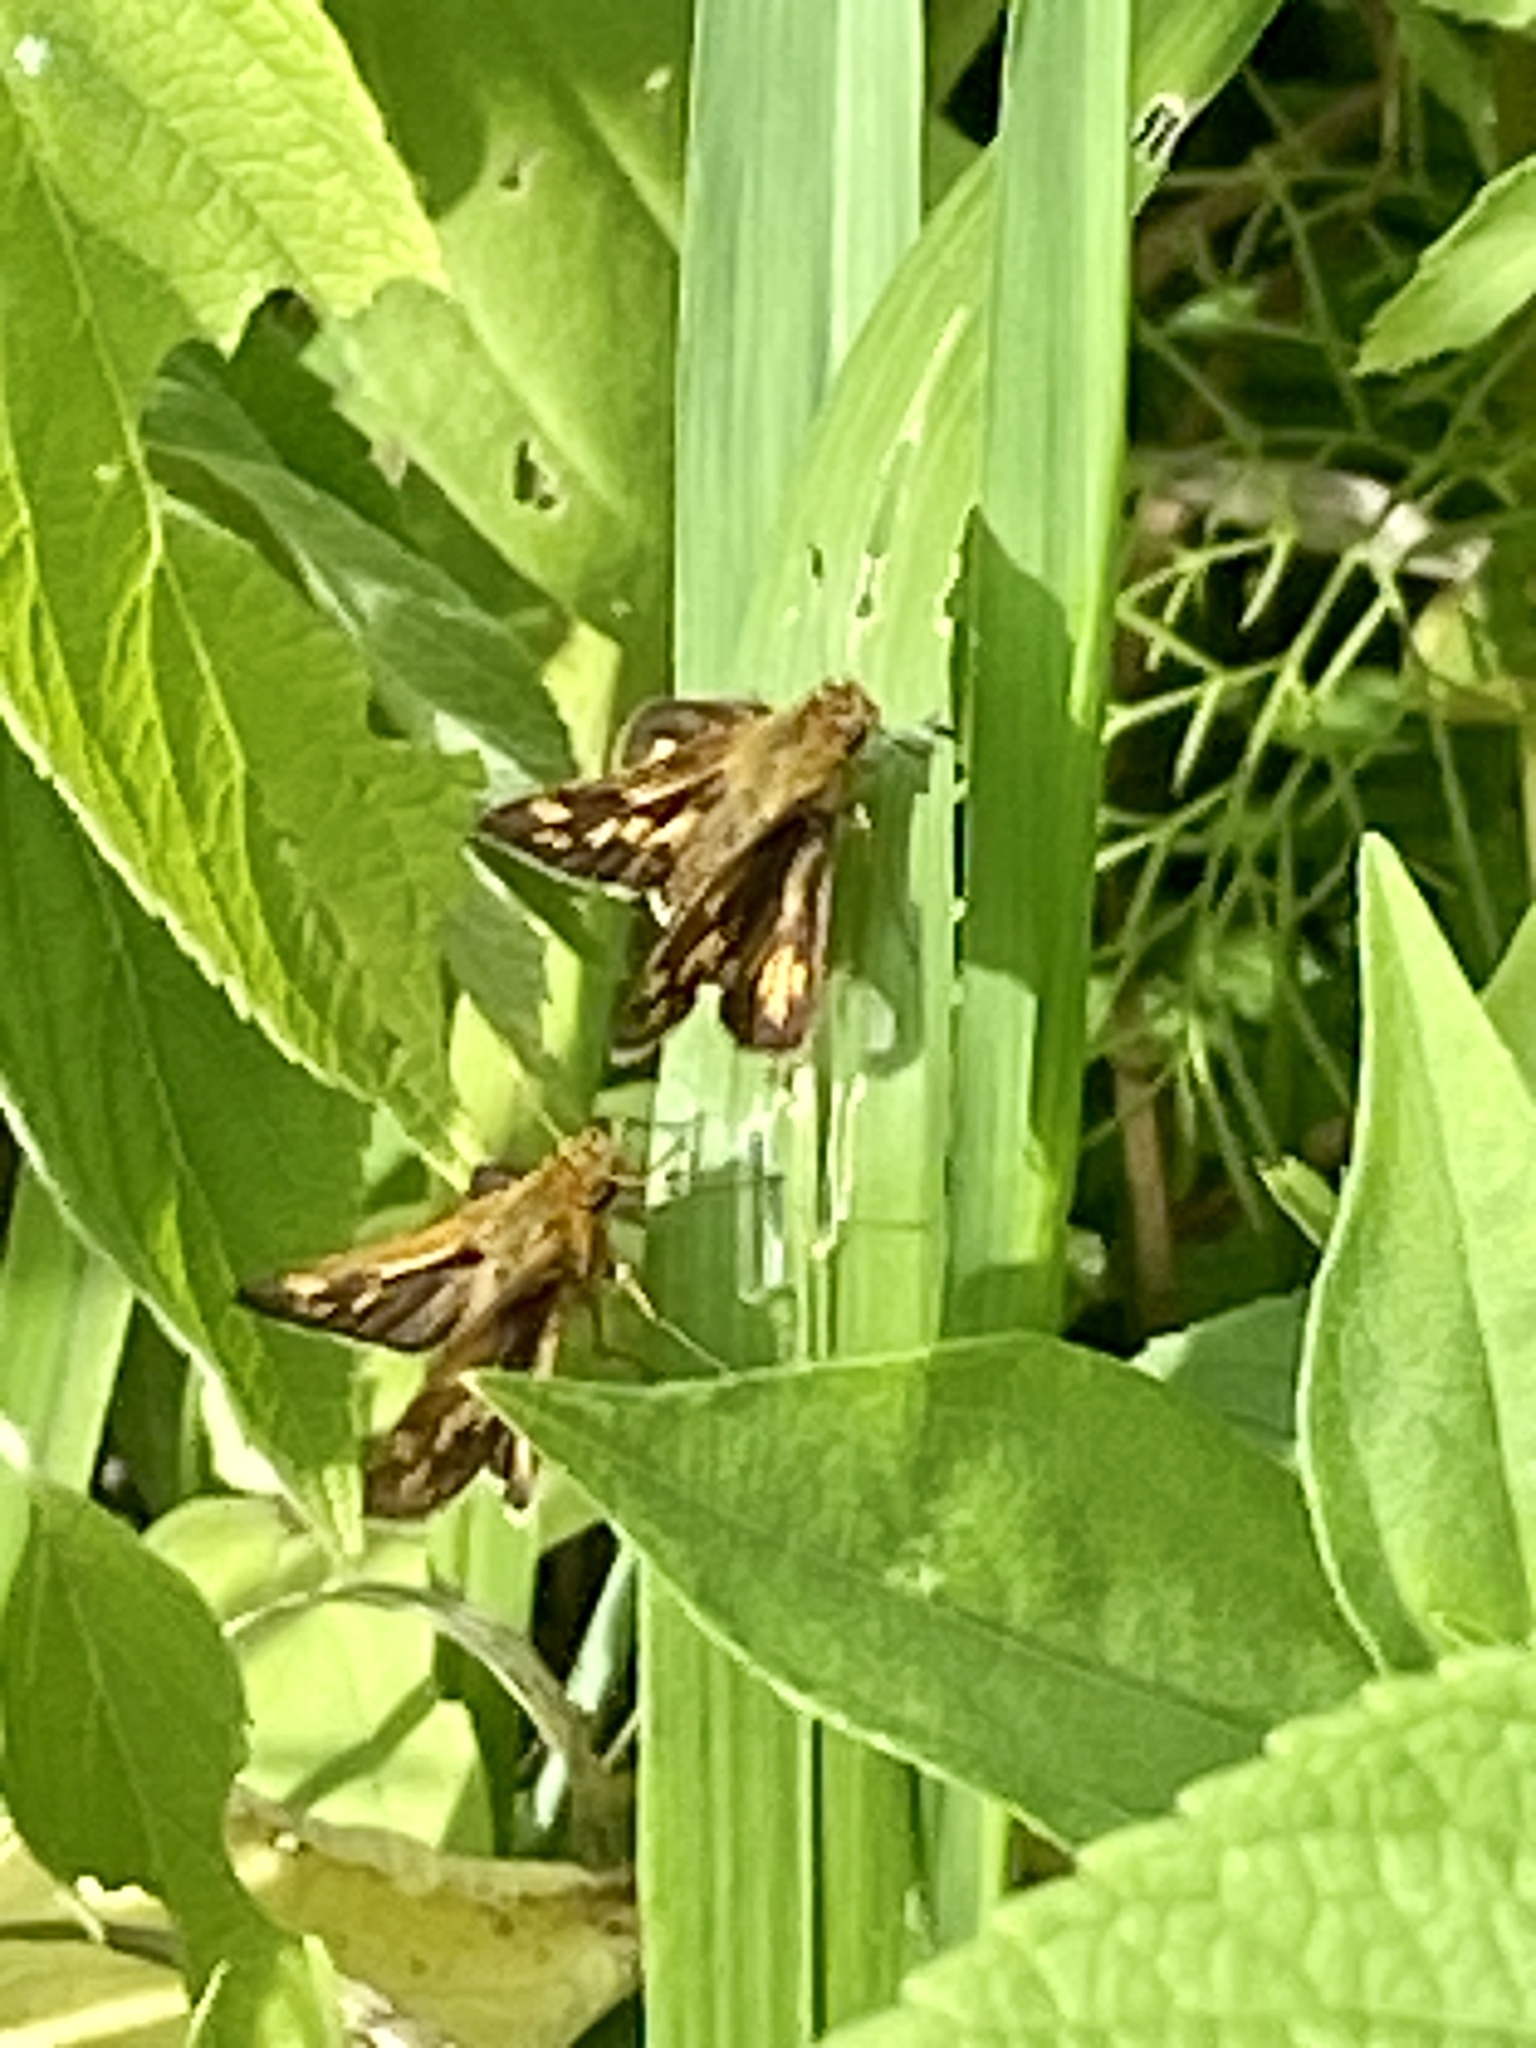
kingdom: Animalia
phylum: Arthropoda
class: Insecta
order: Lepidoptera
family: Hesperiidae
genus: Polites
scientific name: Polites coras
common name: Peck's skipper
